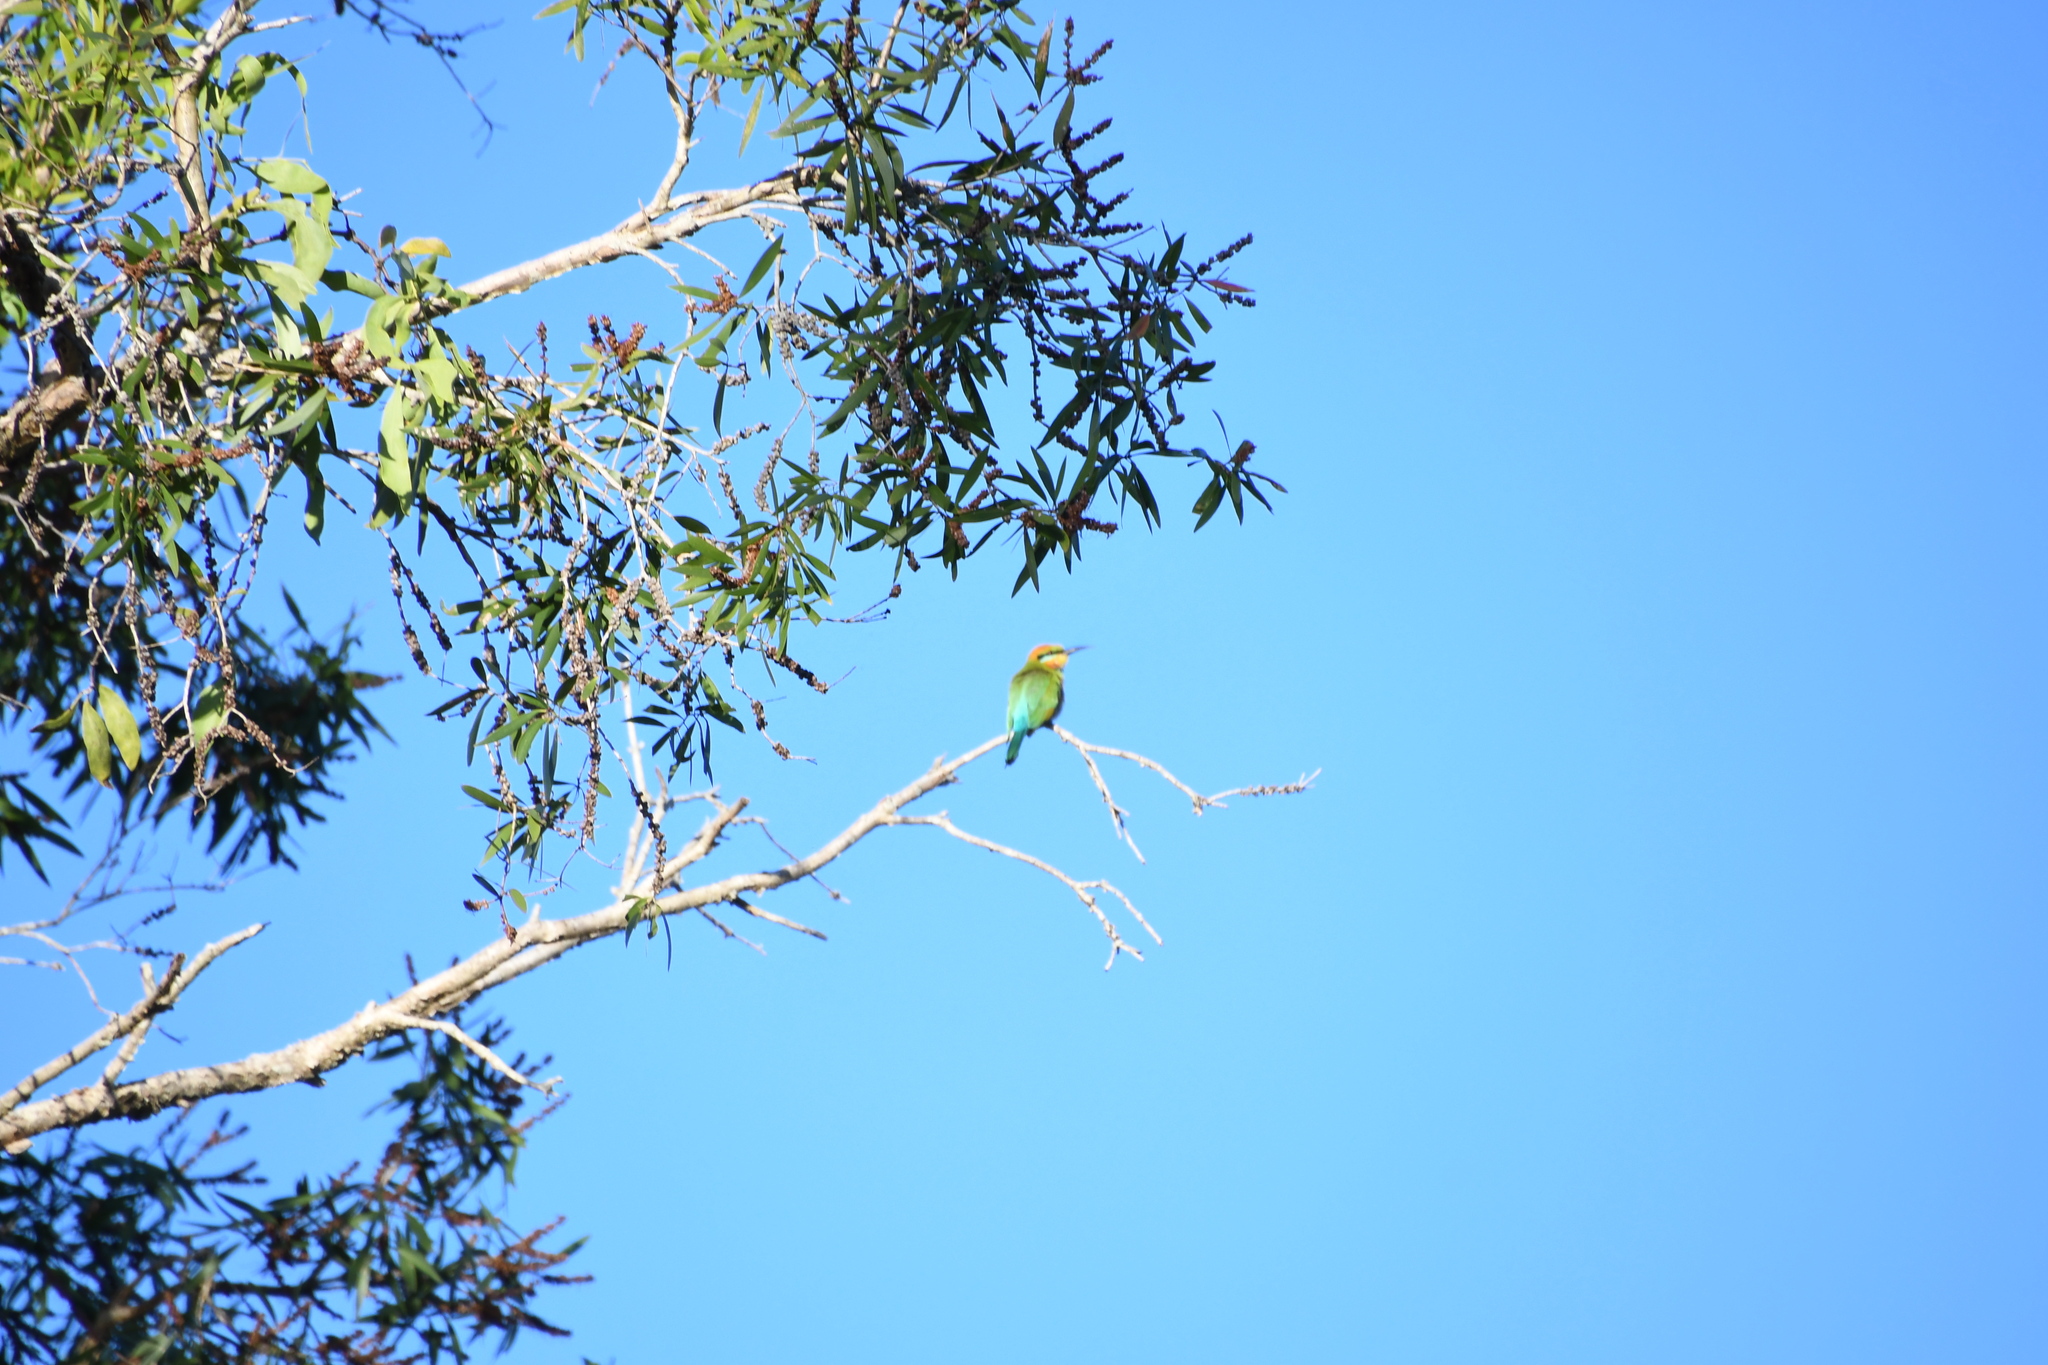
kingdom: Animalia
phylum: Chordata
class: Aves
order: Coraciiformes
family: Meropidae
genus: Merops
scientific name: Merops ornatus
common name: Rainbow bee-eater
